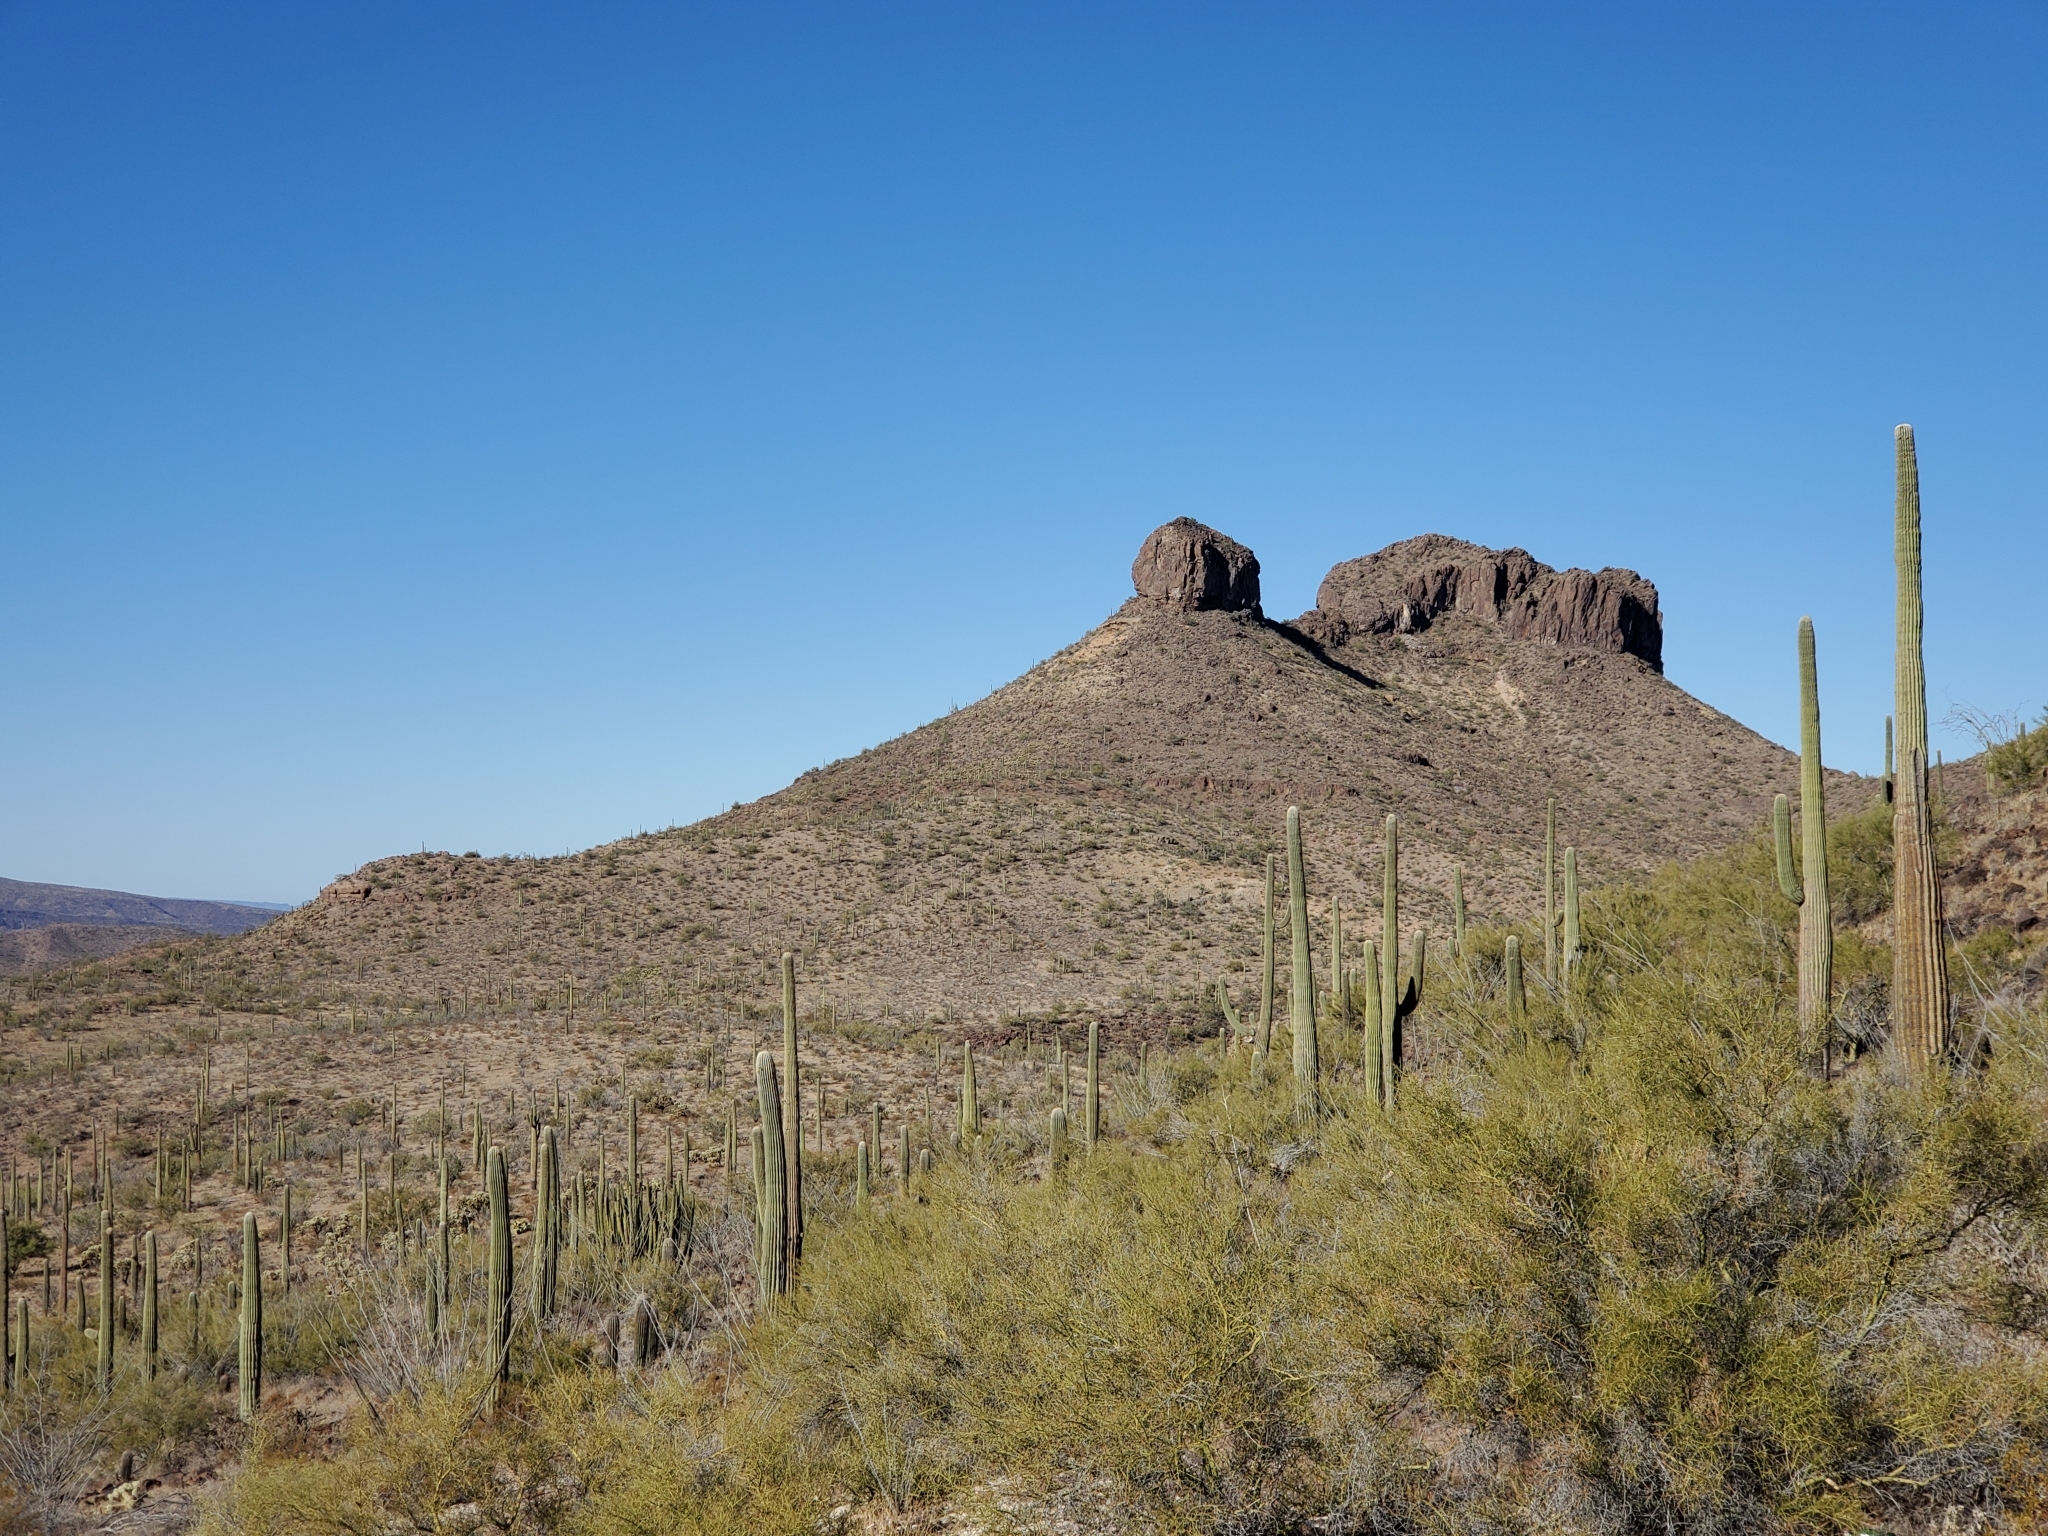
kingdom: Plantae
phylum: Tracheophyta
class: Magnoliopsida
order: Caryophyllales
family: Cactaceae
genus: Stenocereus
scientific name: Stenocereus thurberi
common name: Organ pipe cactus
